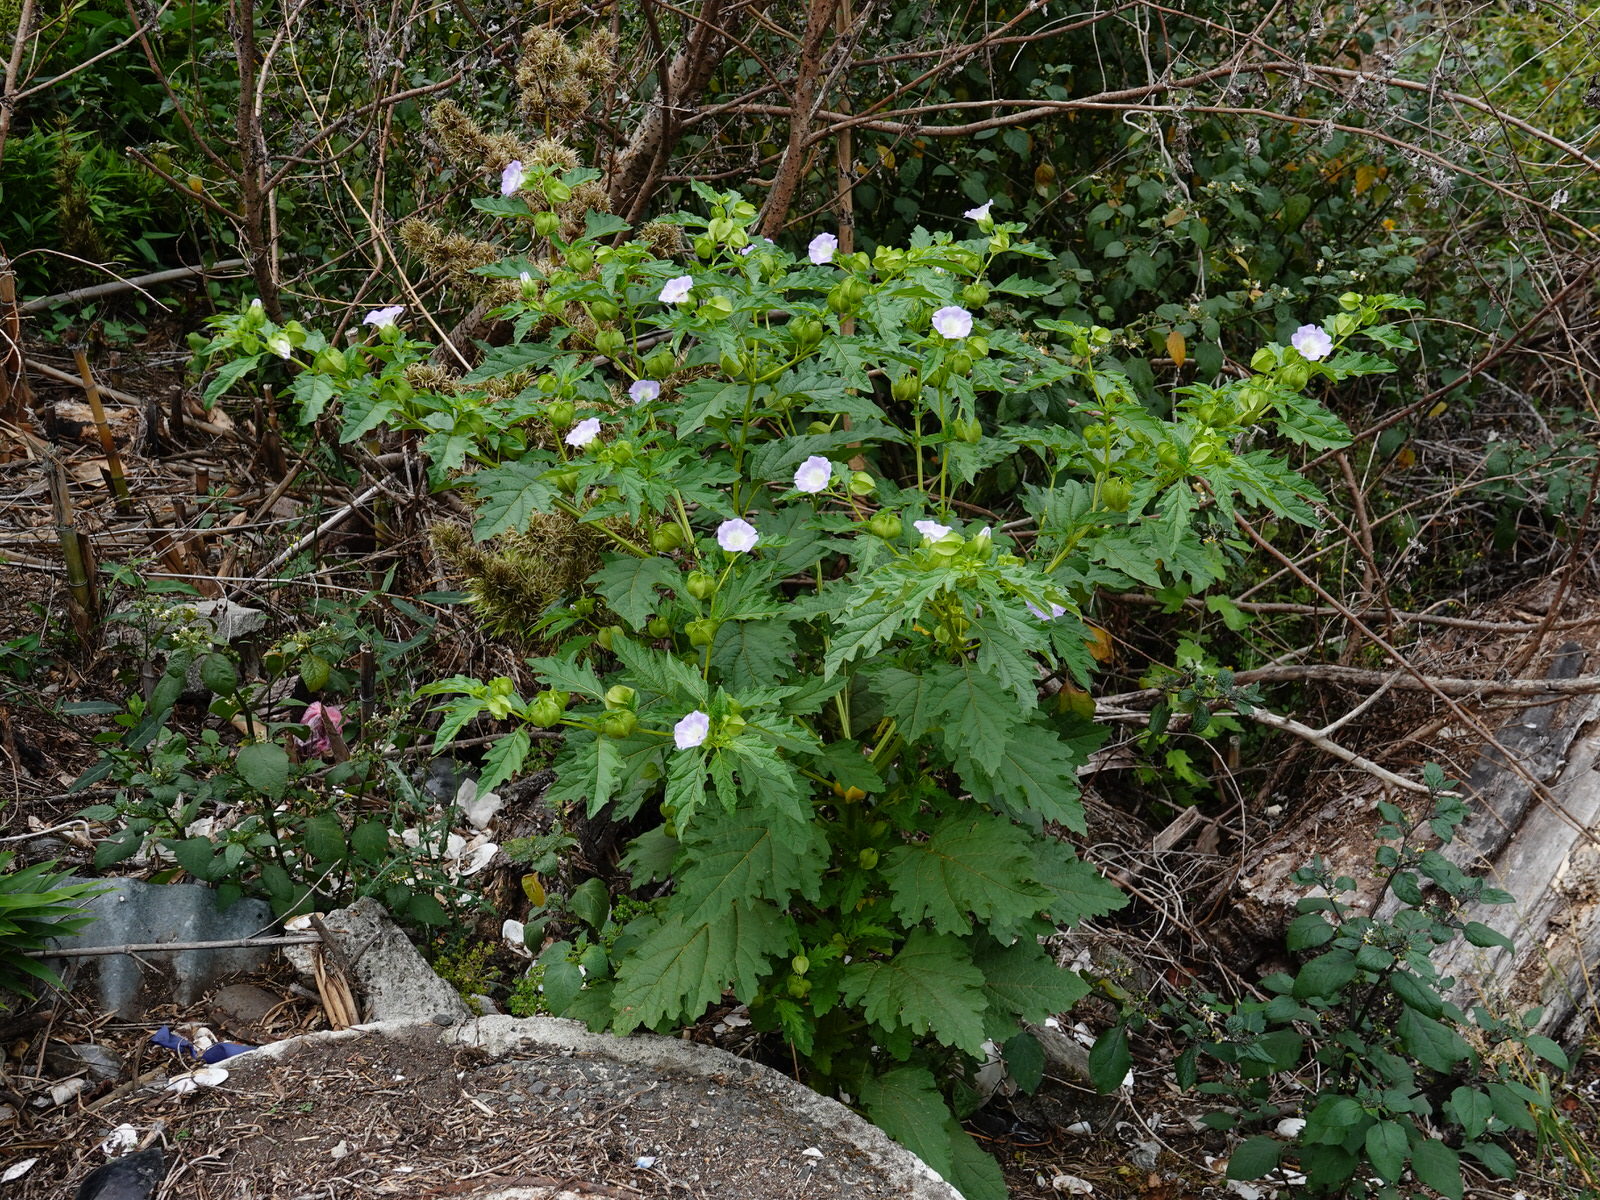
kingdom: Plantae
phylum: Tracheophyta
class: Magnoliopsida
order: Solanales
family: Solanaceae
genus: Nicandra
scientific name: Nicandra physalodes
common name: Apple-of-peru
